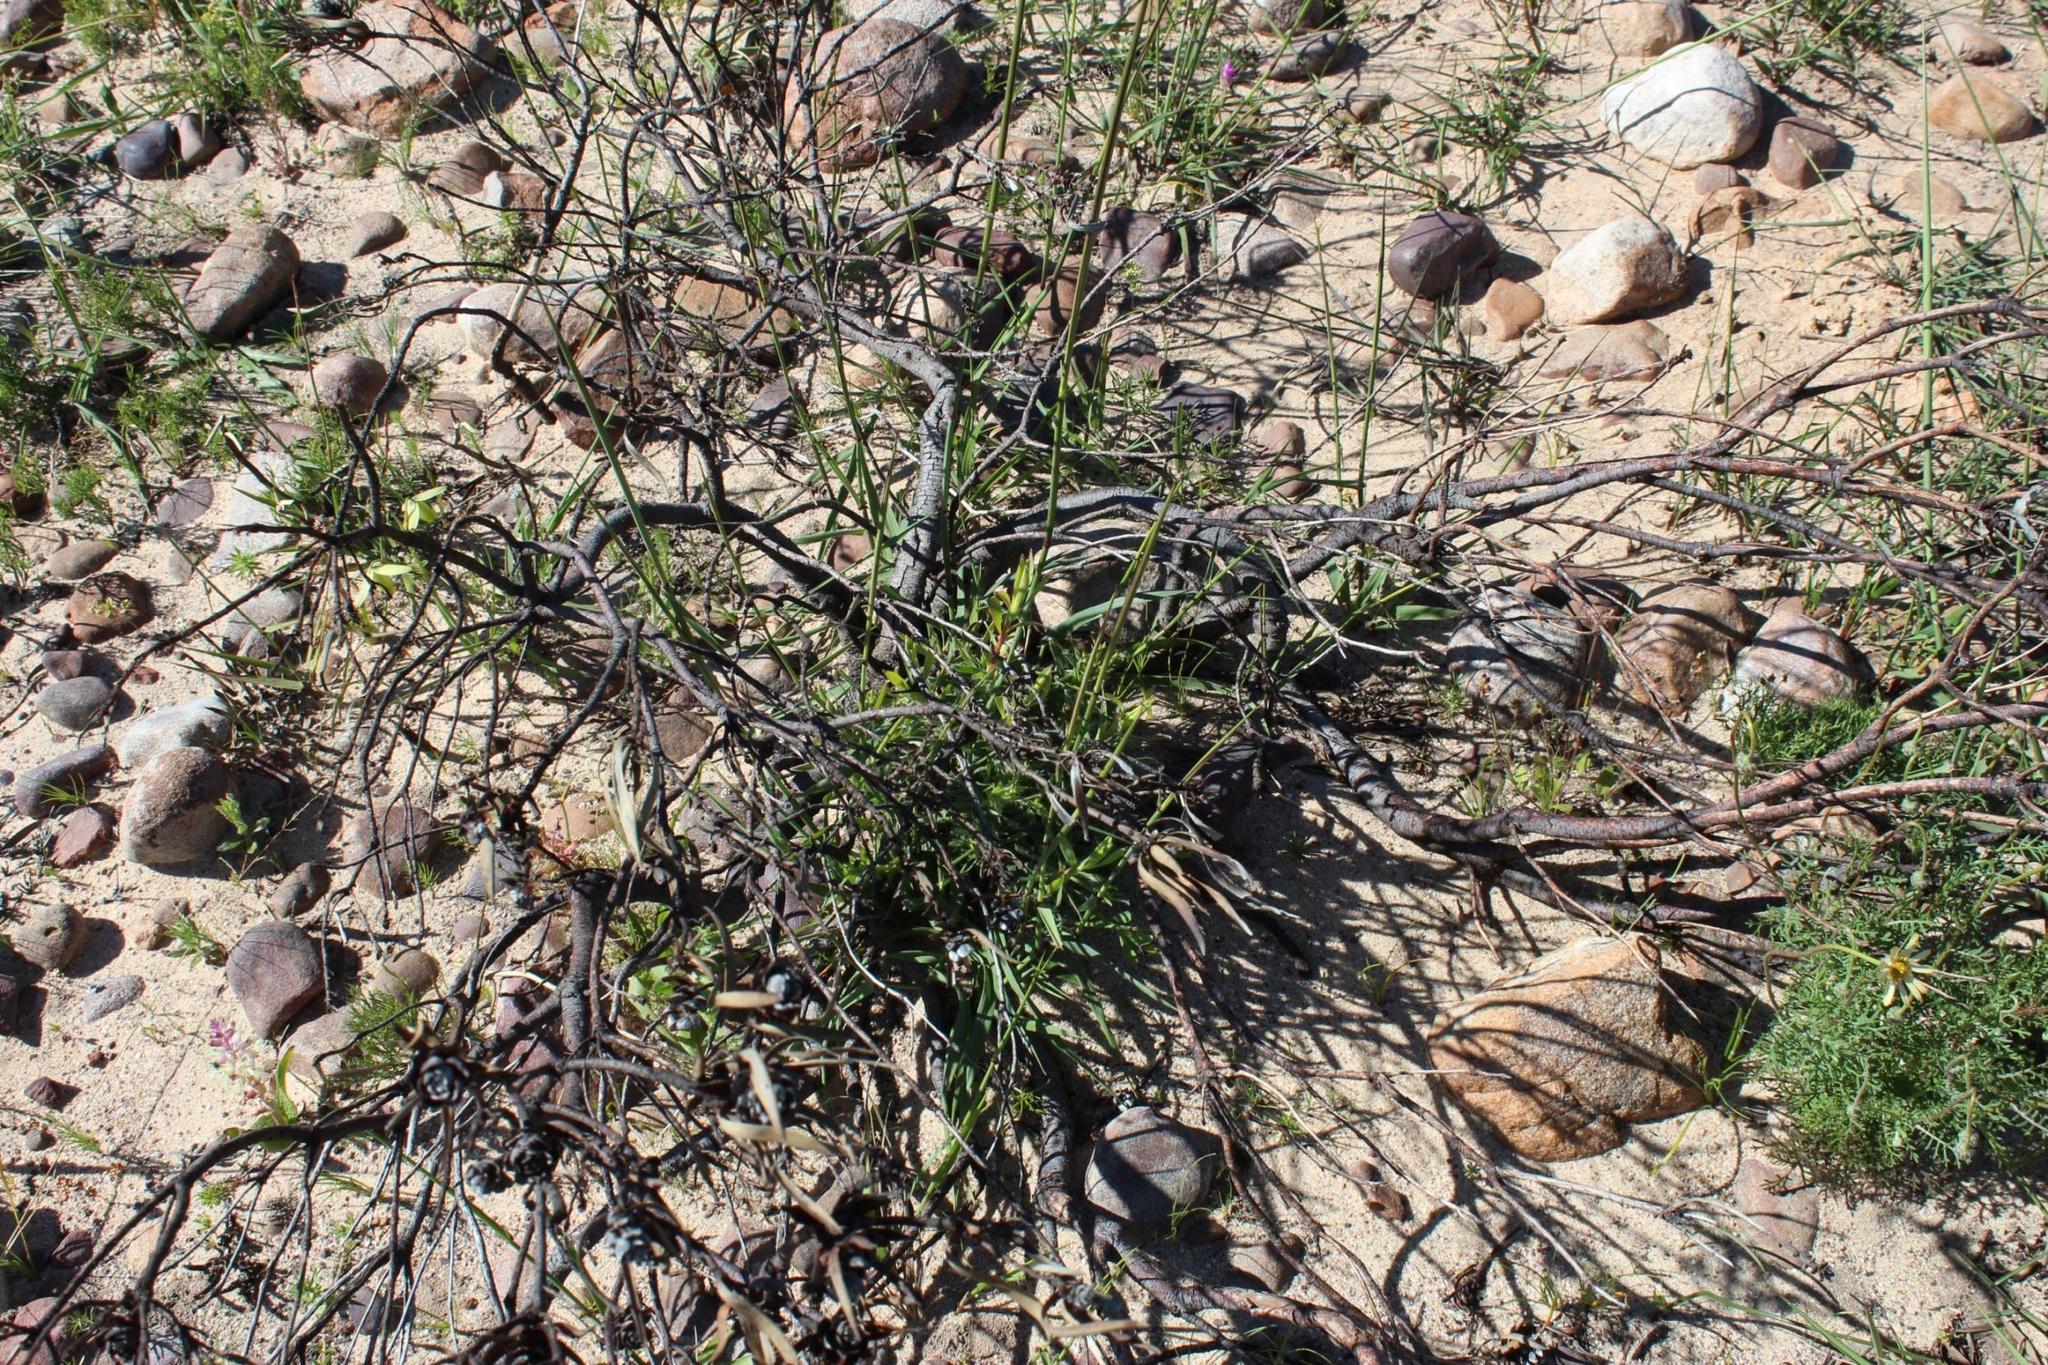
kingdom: Plantae
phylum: Tracheophyta
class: Magnoliopsida
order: Proteales
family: Proteaceae
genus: Leucadendron
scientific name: Leucadendron salignum
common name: Common sunshine conebush
